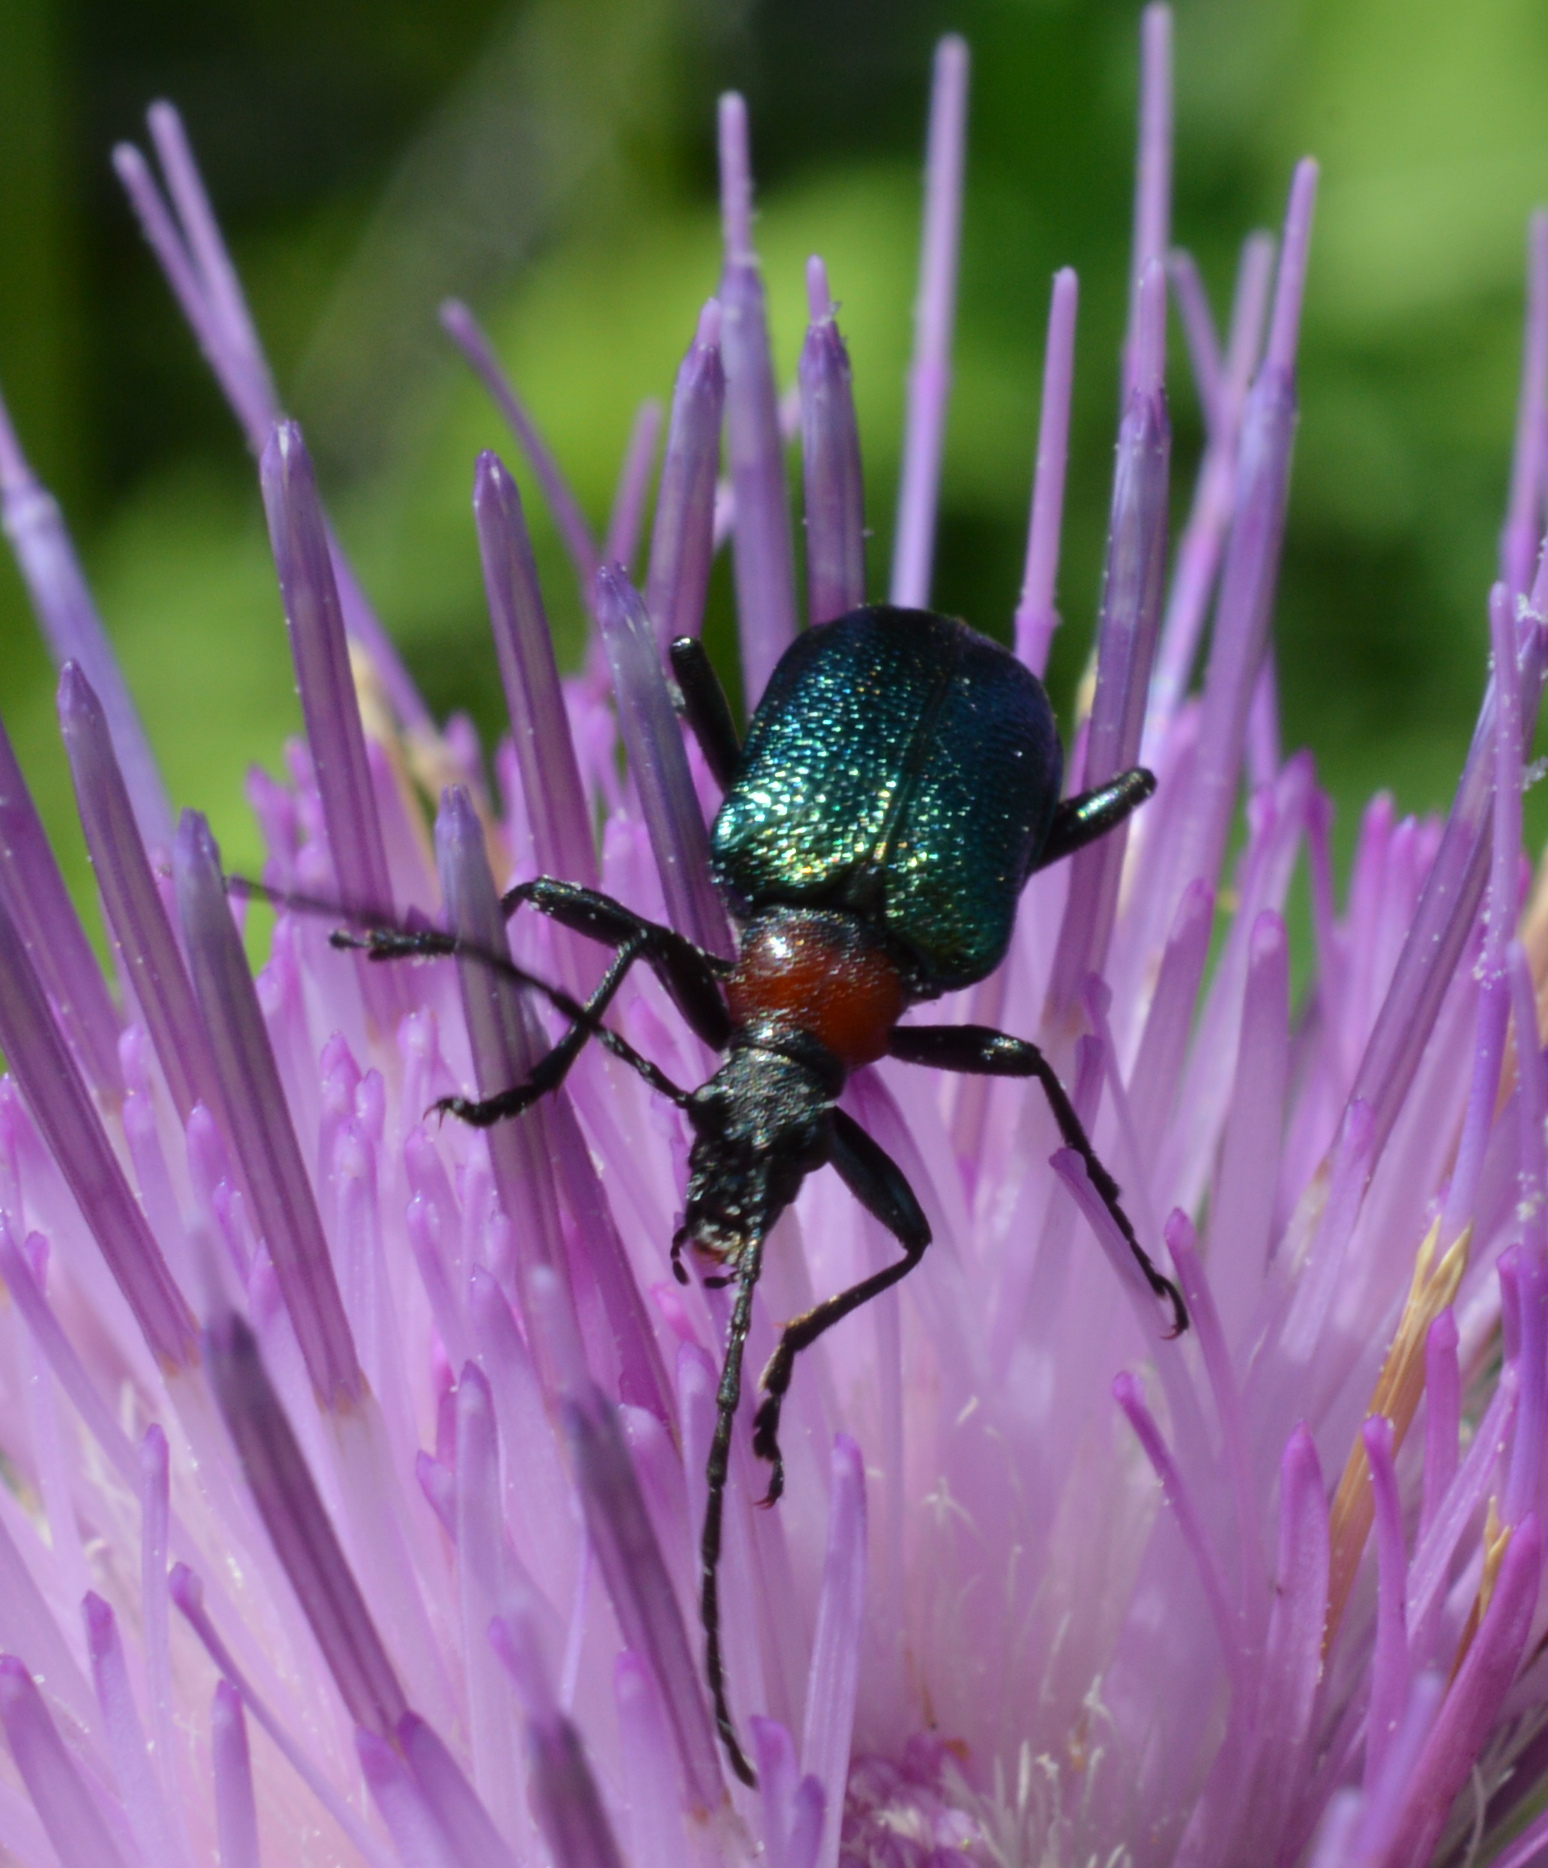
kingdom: Animalia
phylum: Arthropoda
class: Insecta
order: Coleoptera
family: Cerambycidae
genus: Gaurotes
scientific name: Gaurotes virginea
